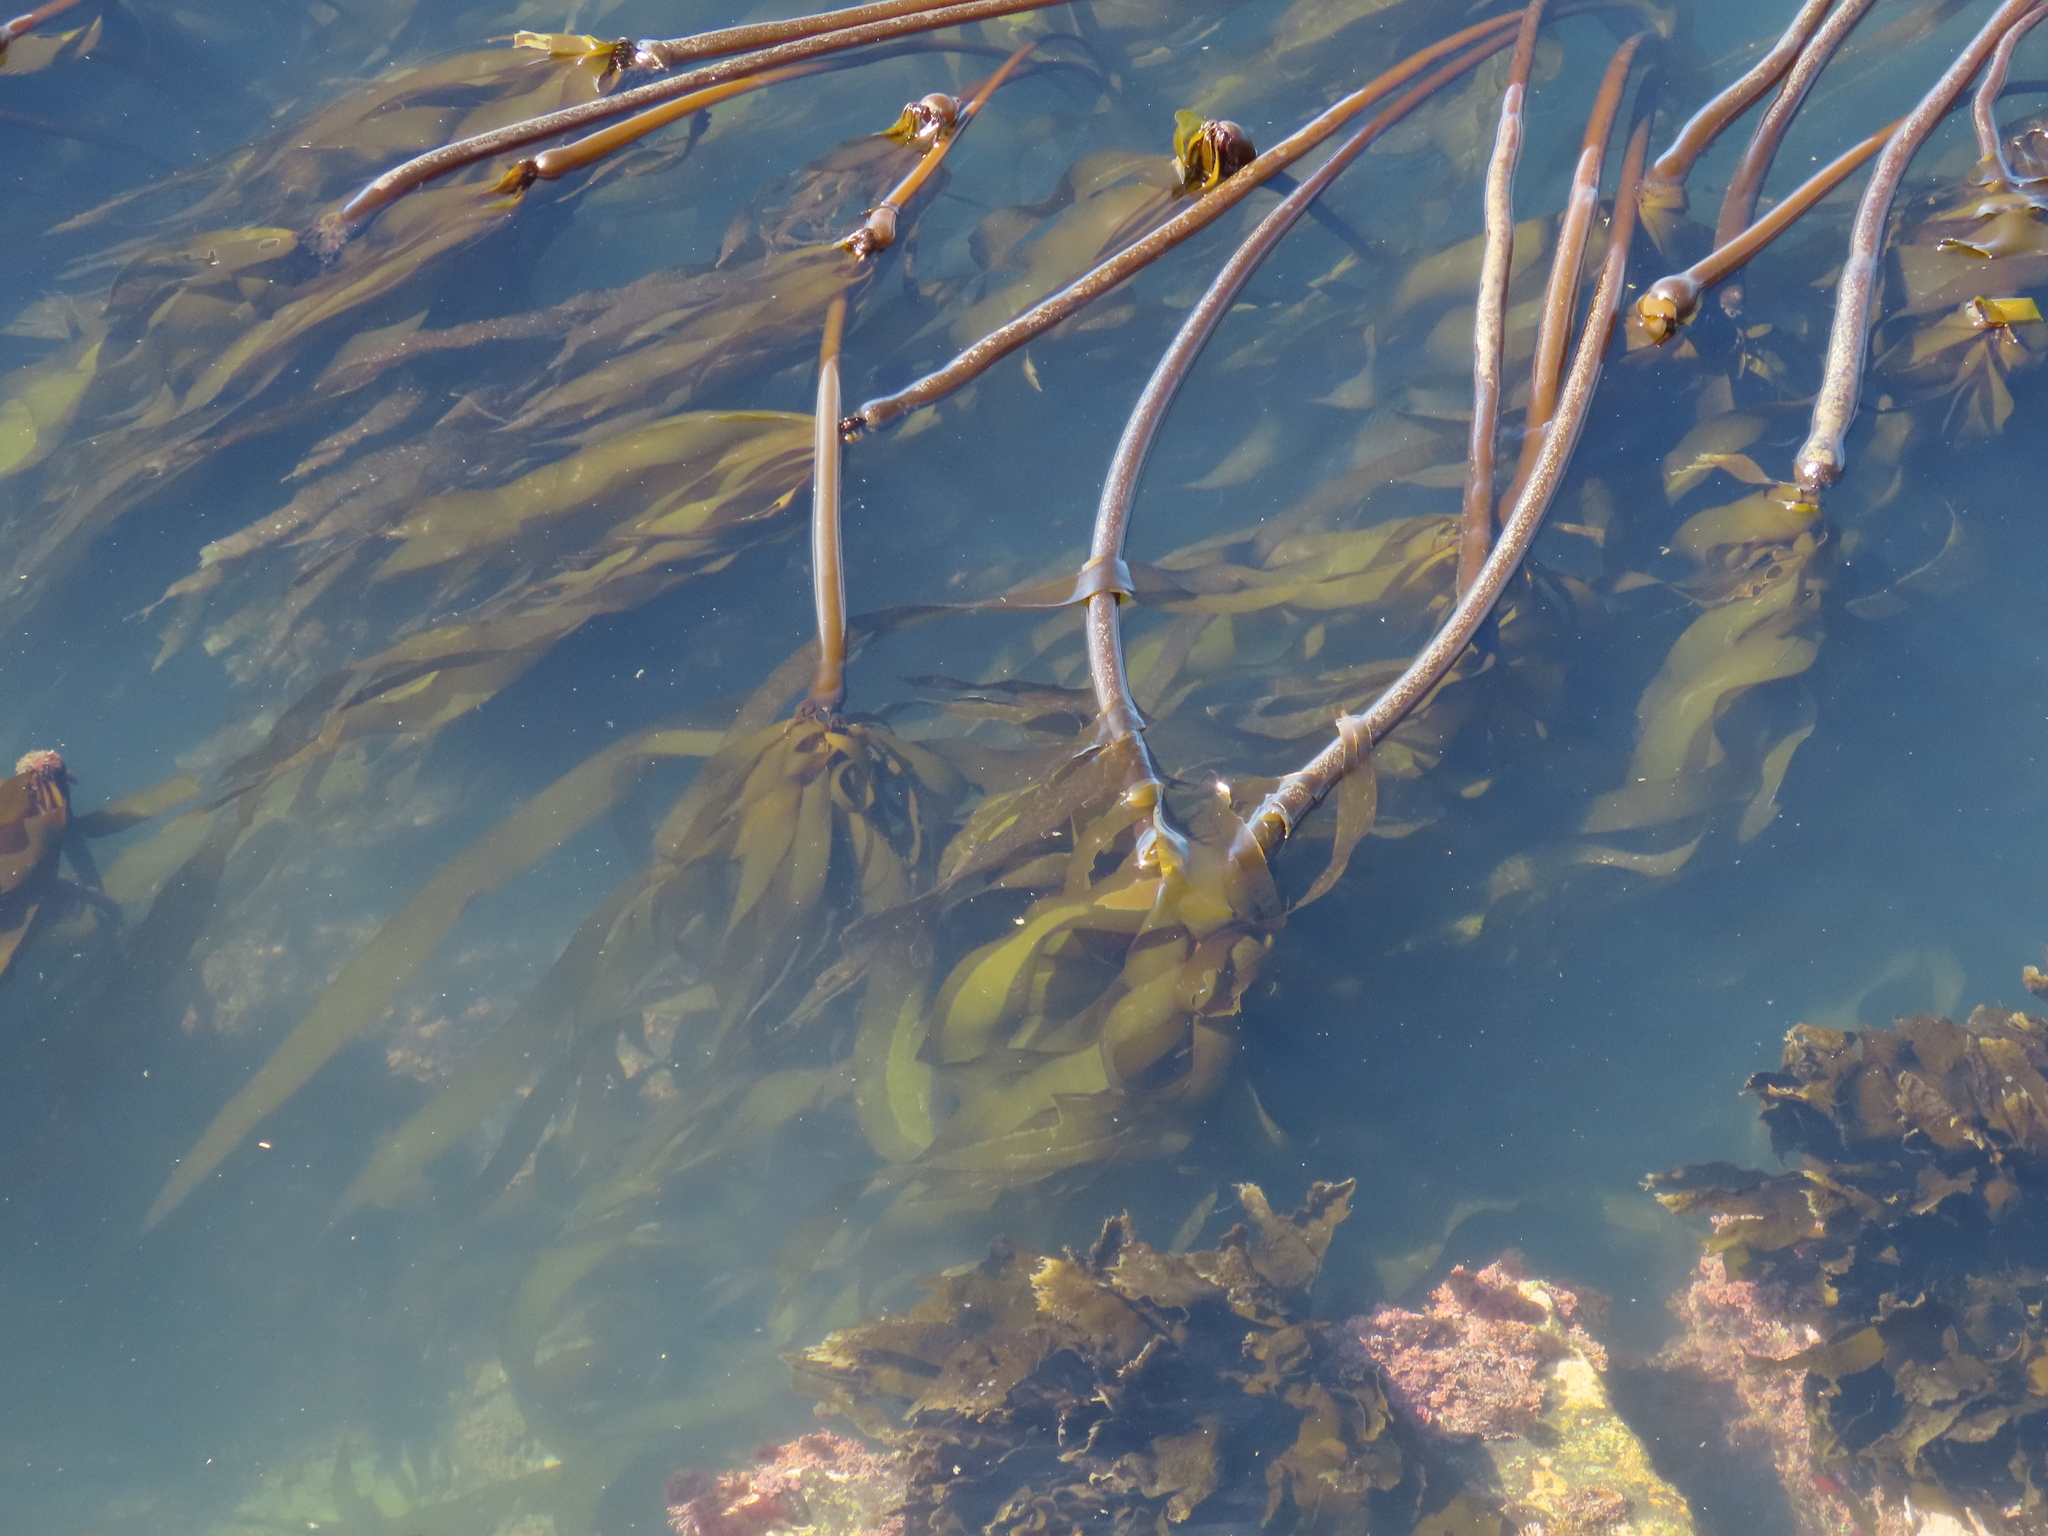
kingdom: Chromista
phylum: Ochrophyta
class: Phaeophyceae
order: Laminariales
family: Laminariaceae
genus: Nereocystis
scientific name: Nereocystis luetkeana
